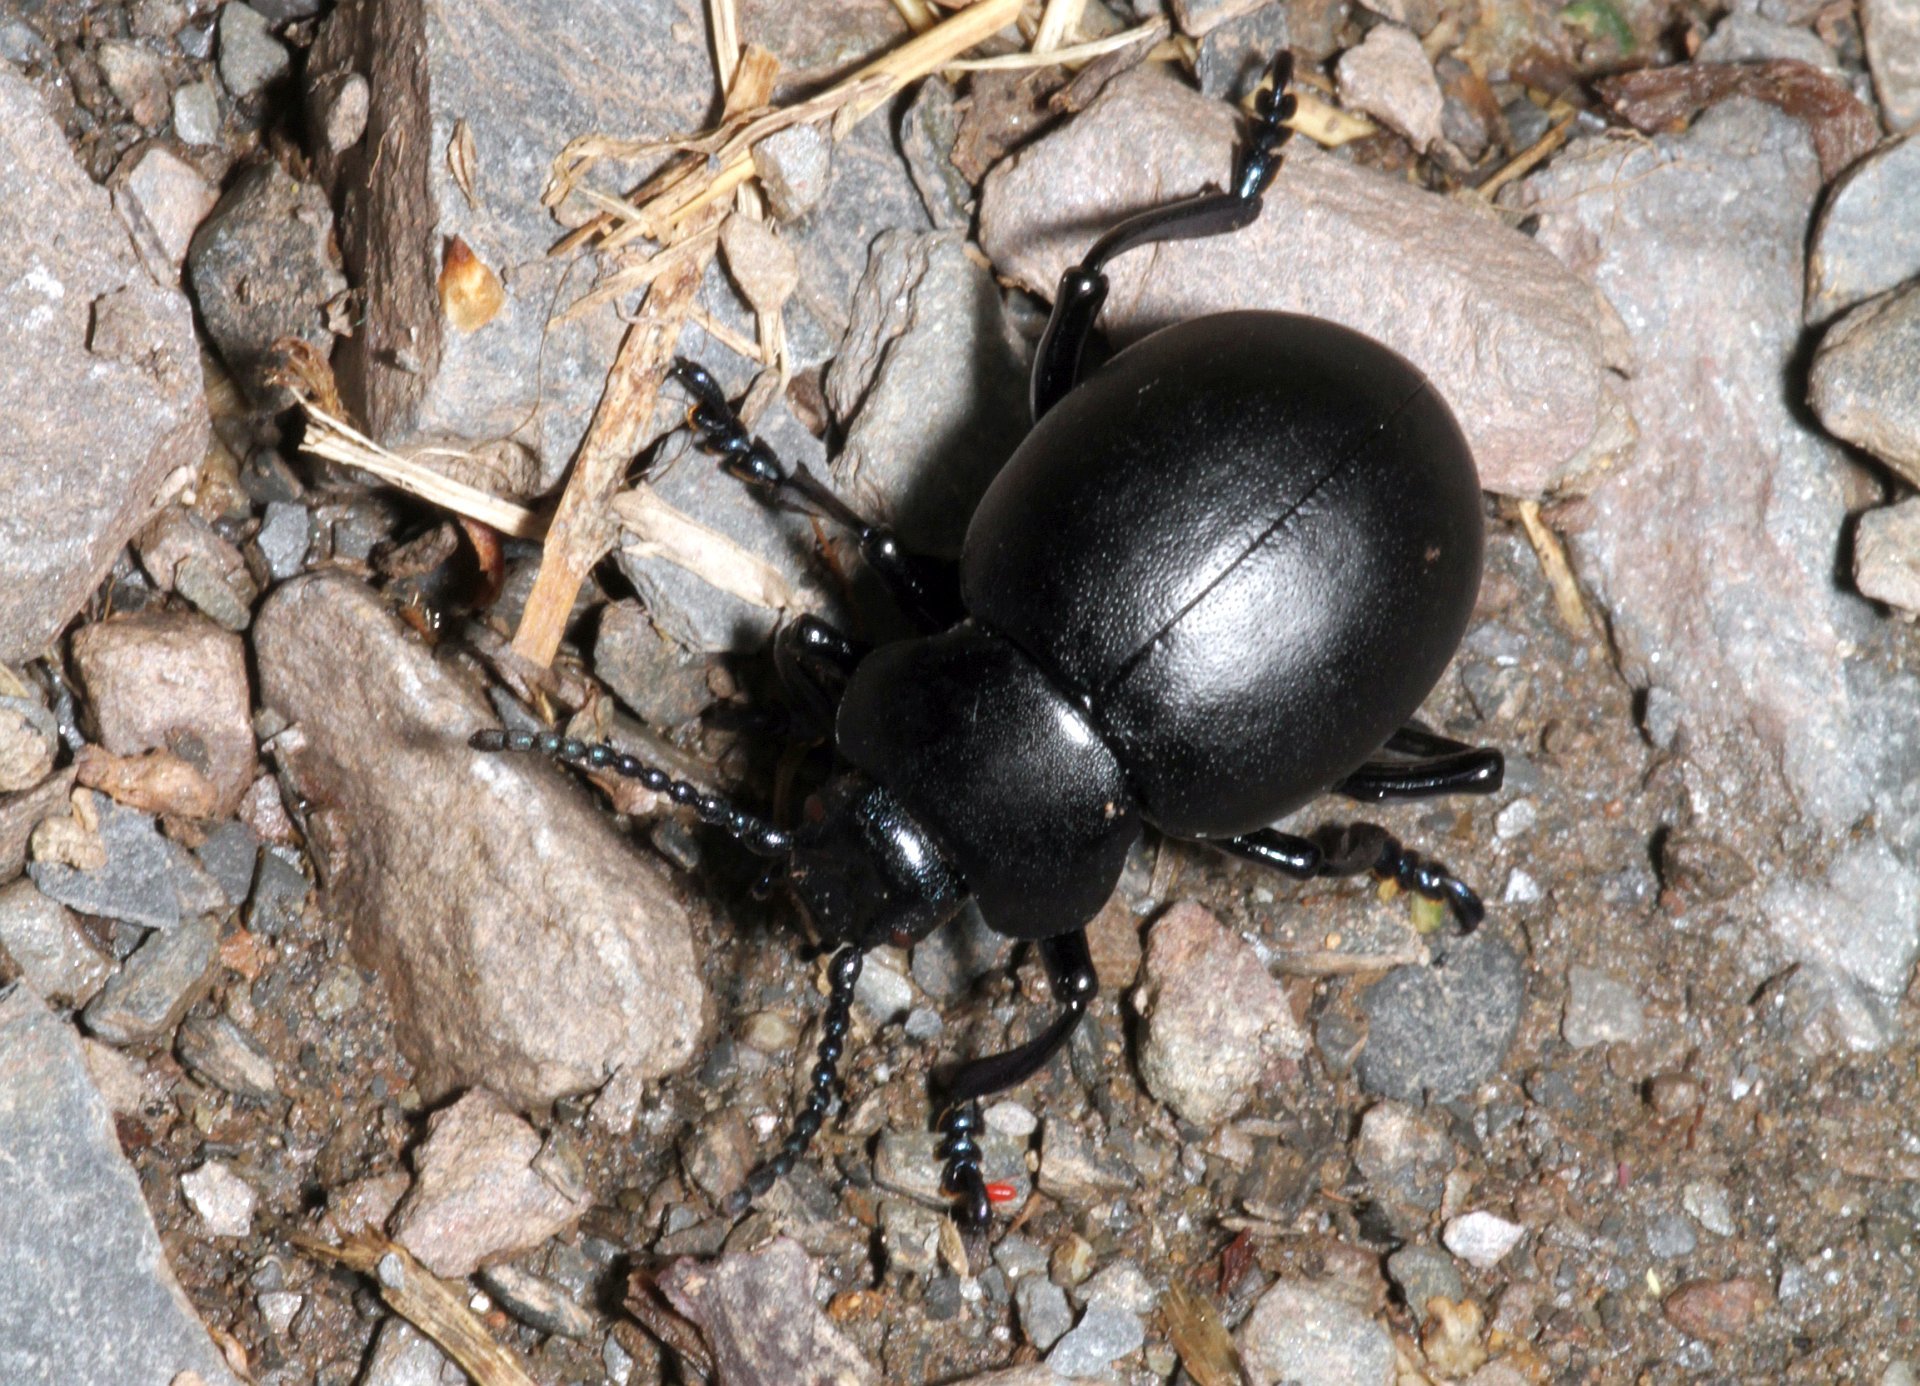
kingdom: Animalia
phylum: Arthropoda
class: Insecta
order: Coleoptera
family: Chrysomelidae
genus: Timarcha
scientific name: Timarcha tenebricosa
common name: Bloody-nosed beetle
